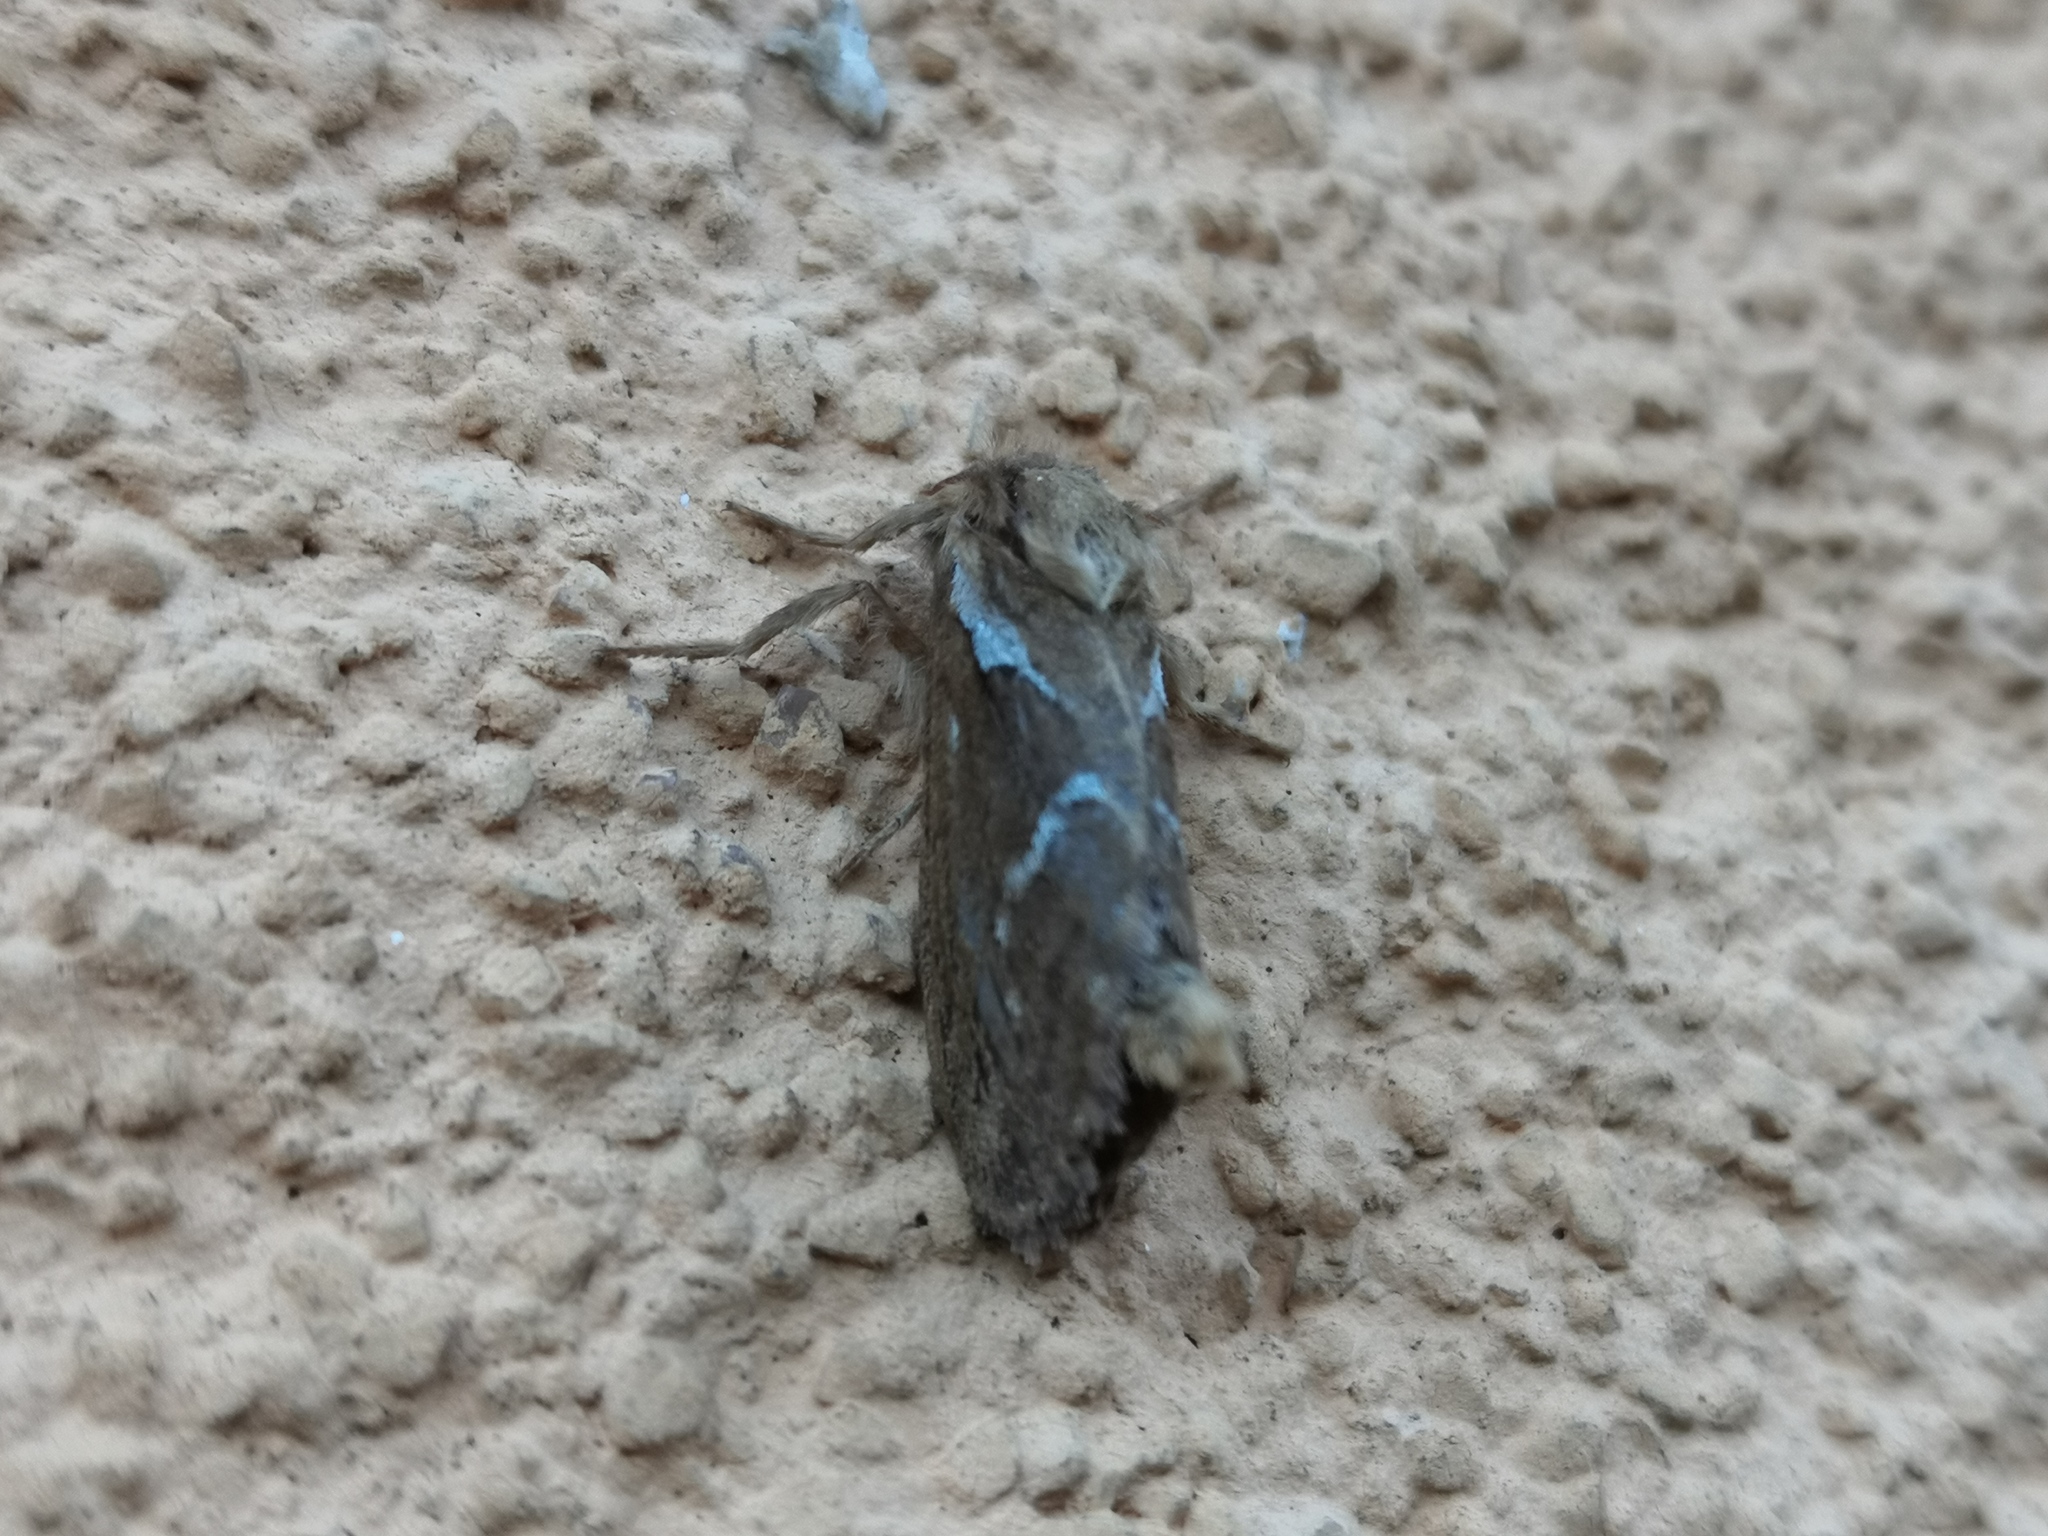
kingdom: Animalia
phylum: Arthropoda
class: Insecta
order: Lepidoptera
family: Hepialidae
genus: Korscheltellus
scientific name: Korscheltellus lupulina
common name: Common swift
